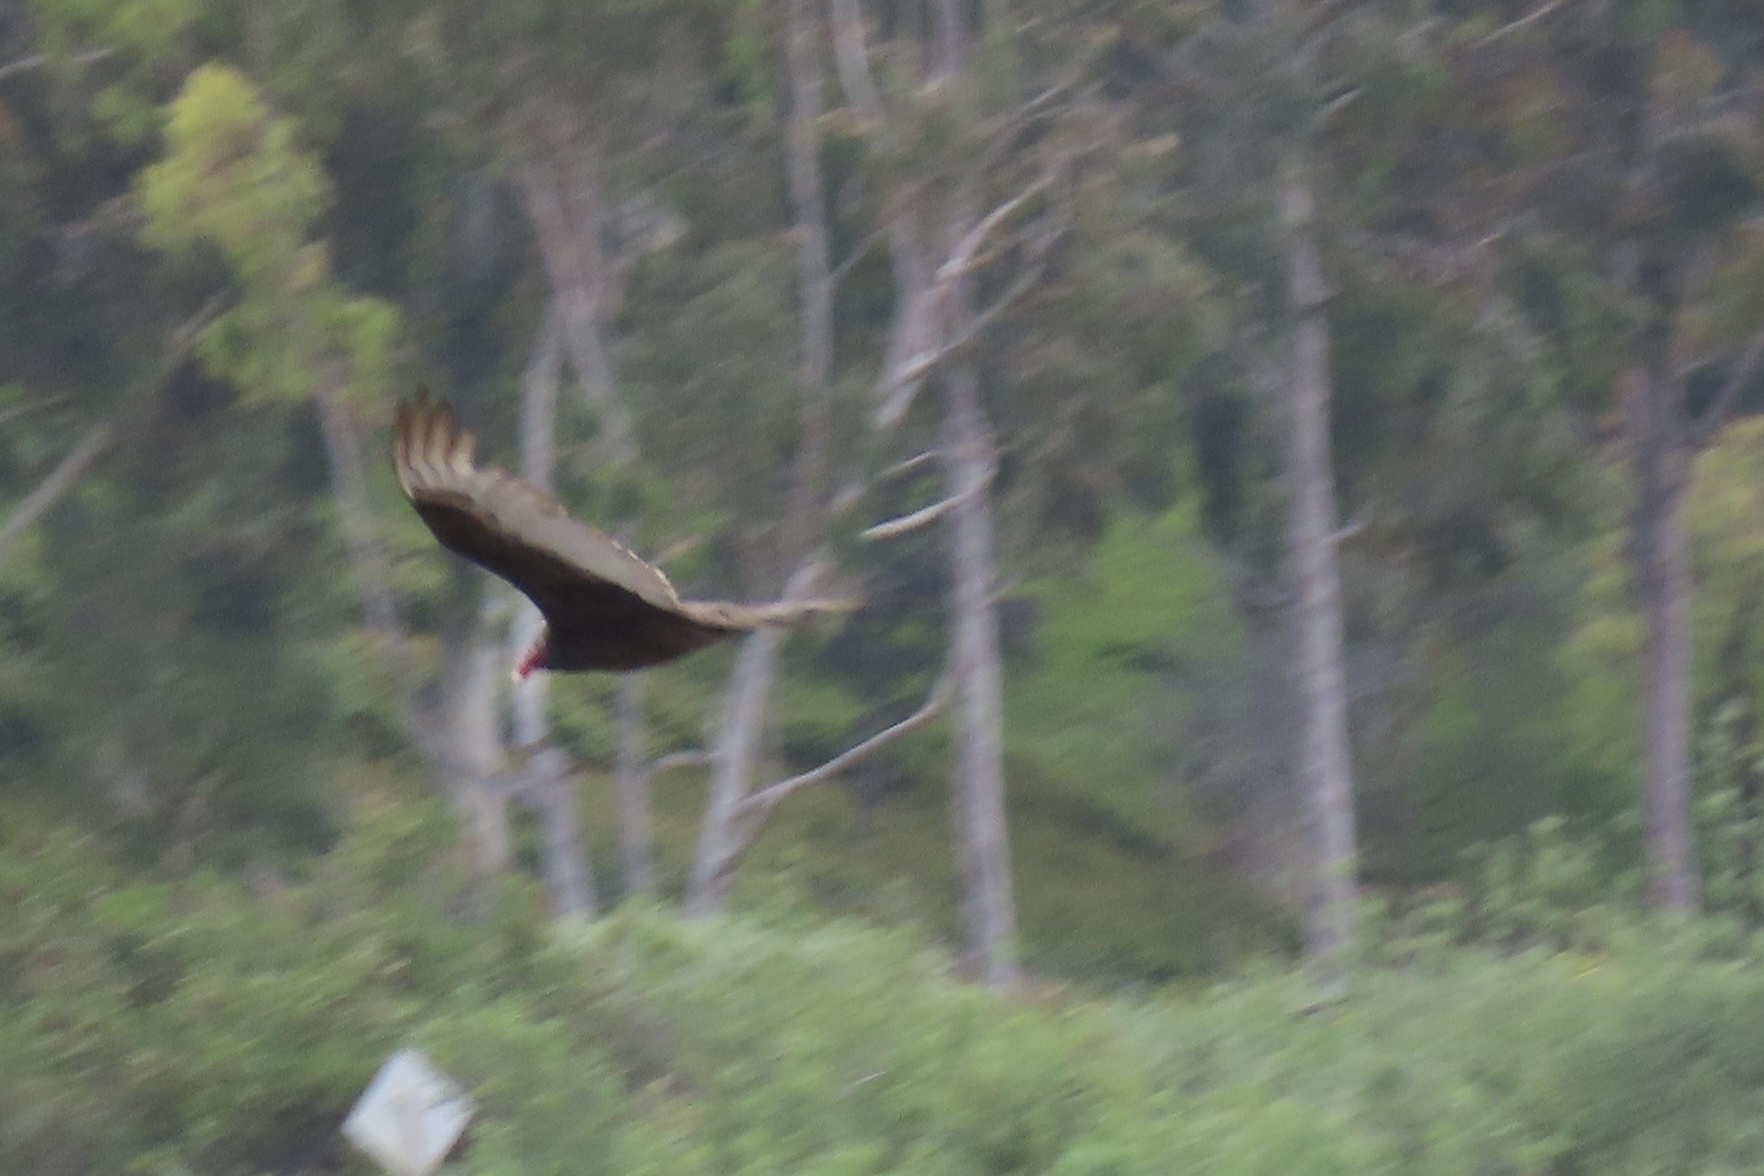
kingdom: Animalia
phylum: Chordata
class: Aves
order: Accipitriformes
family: Cathartidae
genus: Cathartes
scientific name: Cathartes aura
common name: Turkey vulture
